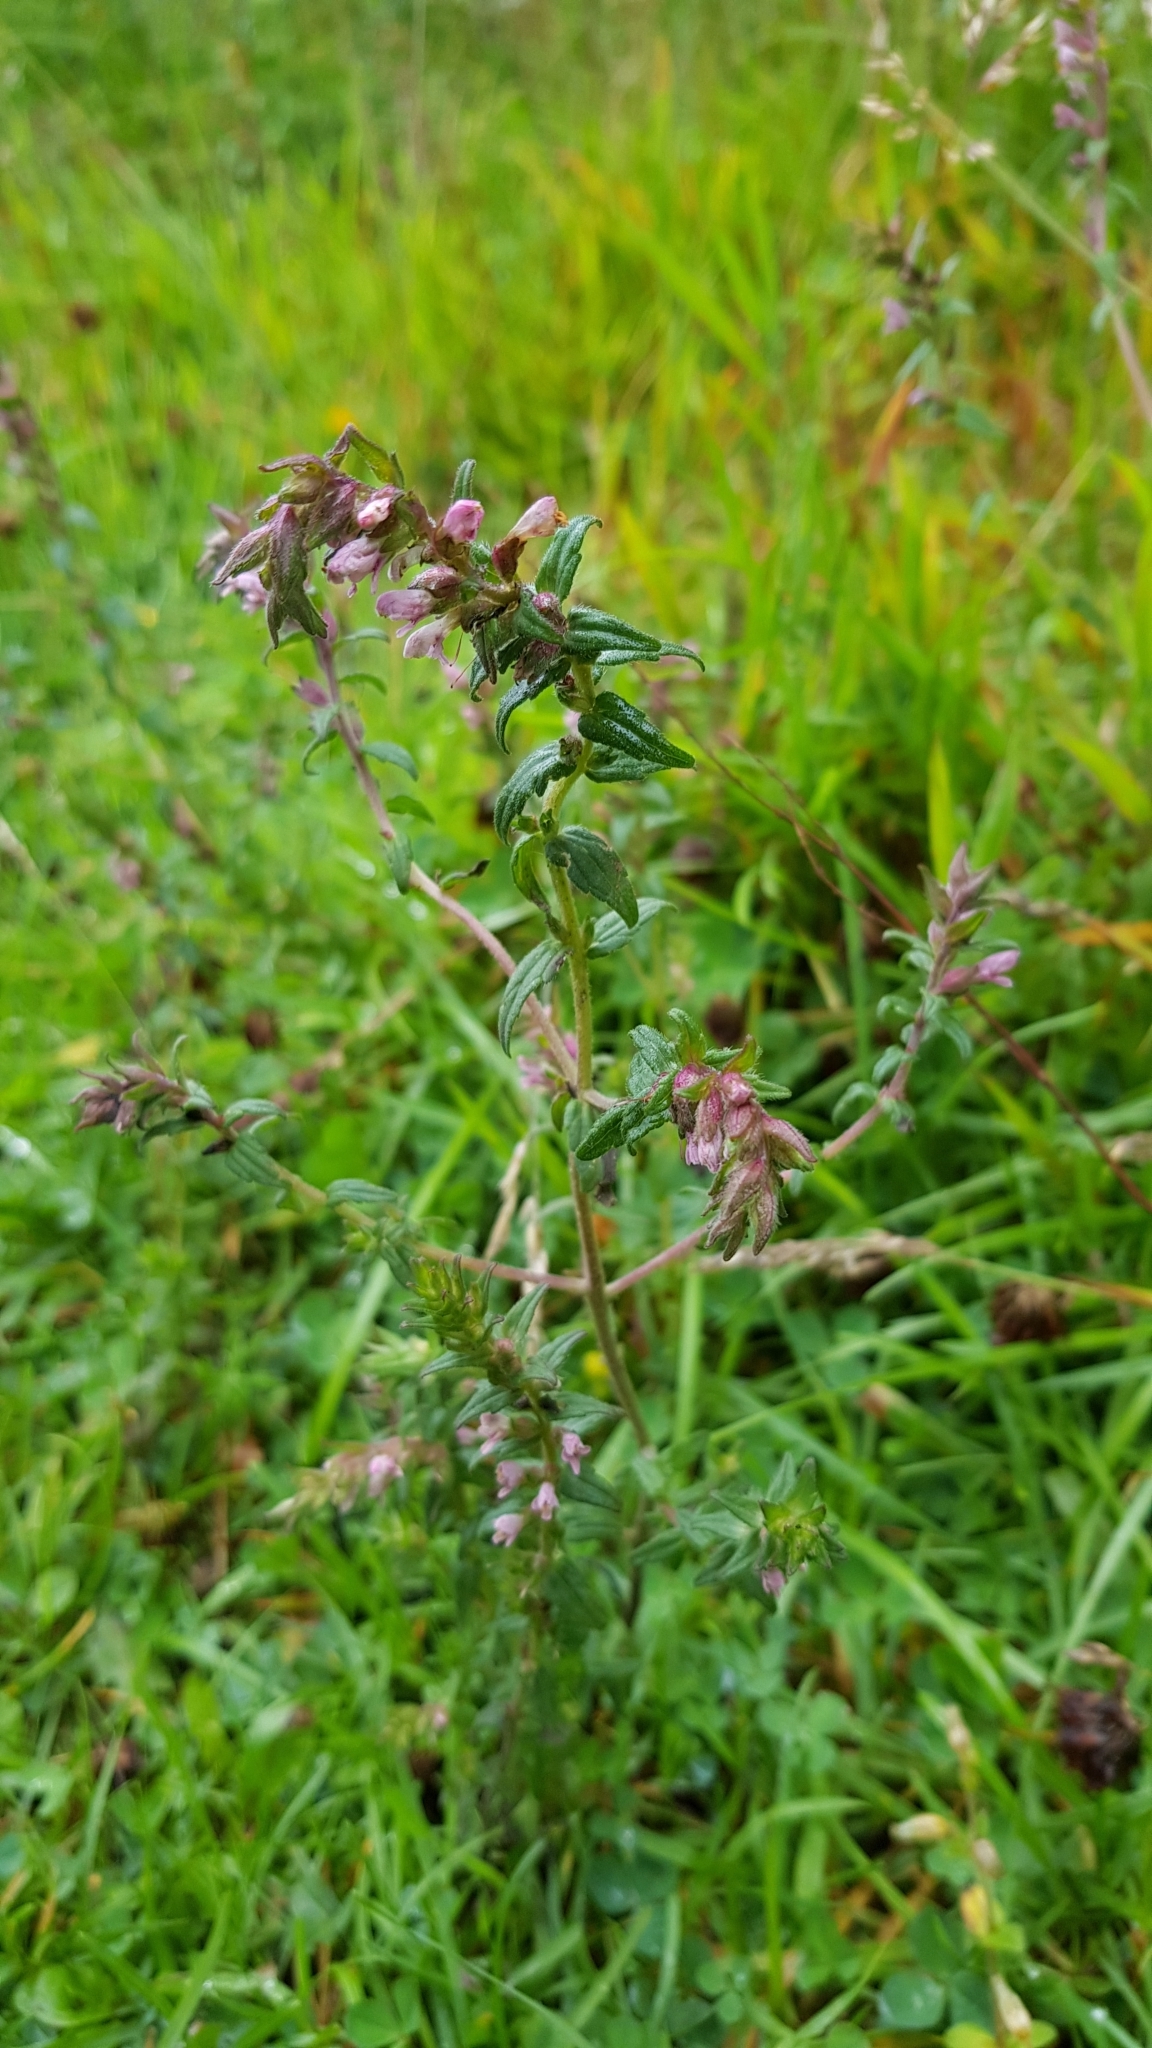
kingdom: Plantae
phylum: Tracheophyta
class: Magnoliopsida
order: Lamiales
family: Orobanchaceae
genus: Odontites
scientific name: Odontites vulgaris
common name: Broomrape
